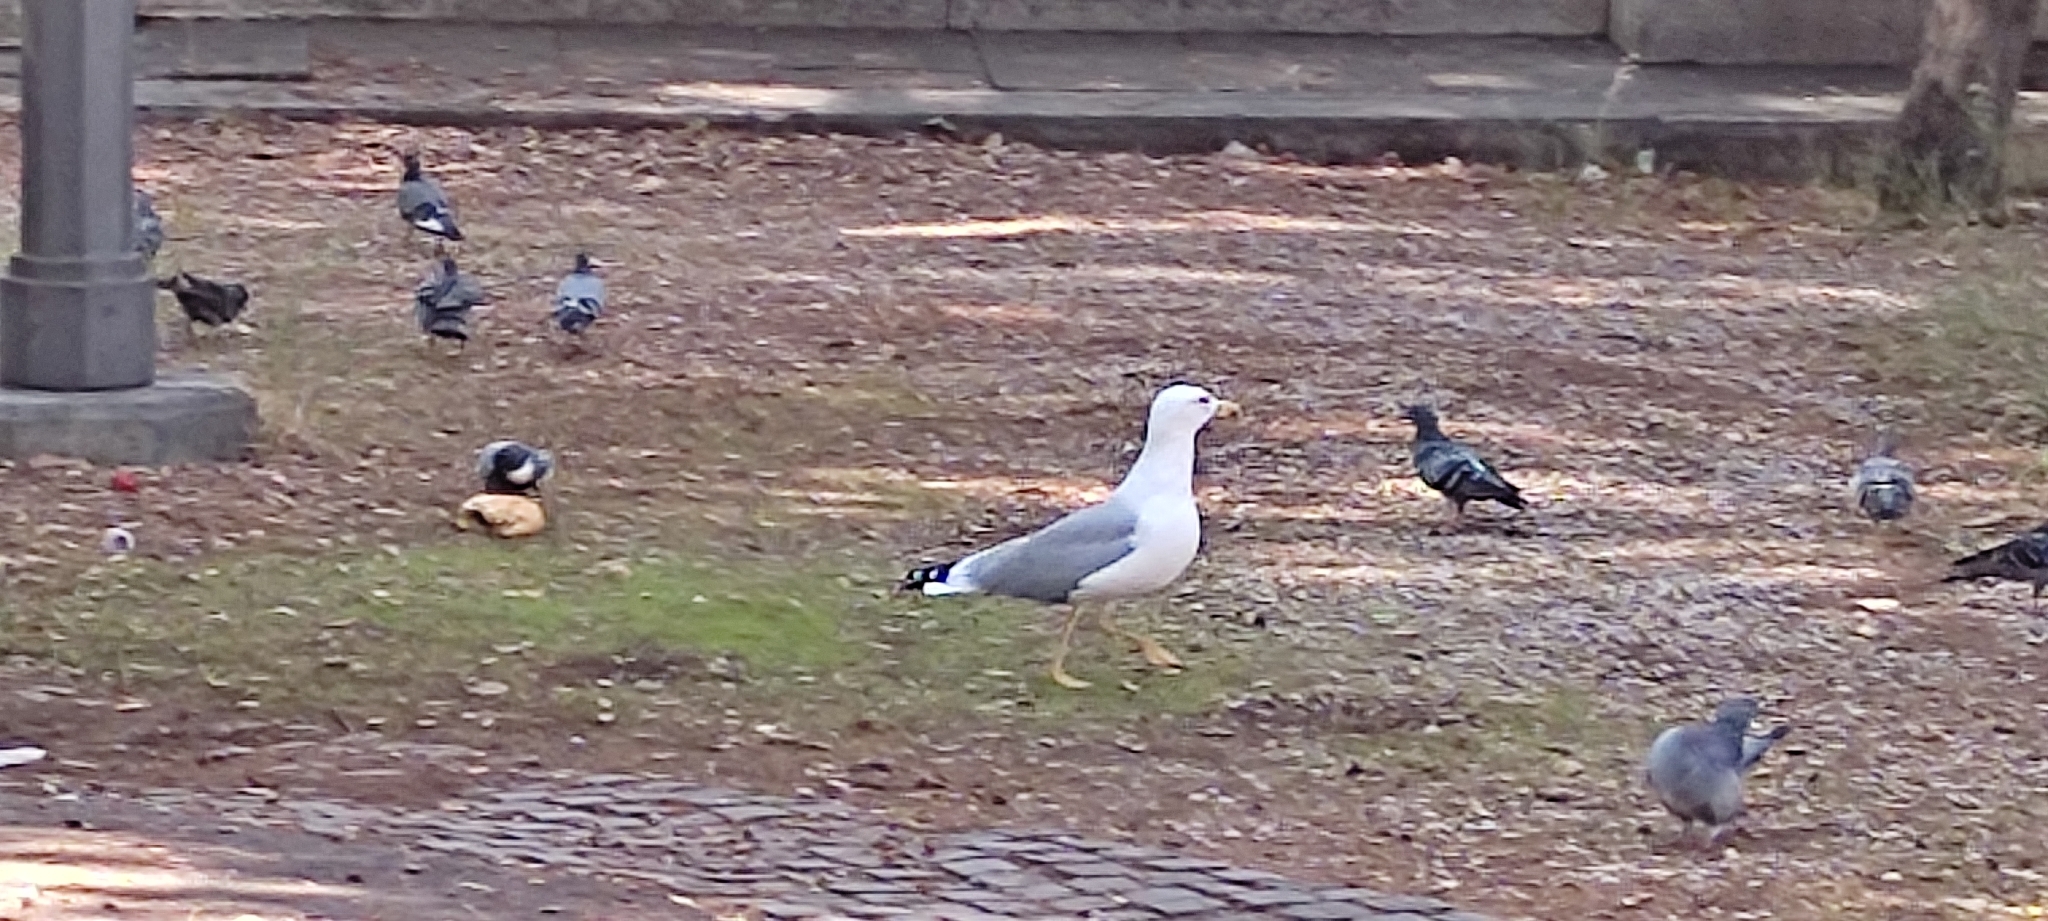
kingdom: Animalia
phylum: Chordata
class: Aves
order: Charadriiformes
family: Laridae
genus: Larus
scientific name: Larus michahellis
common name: Yellow-legged gull
